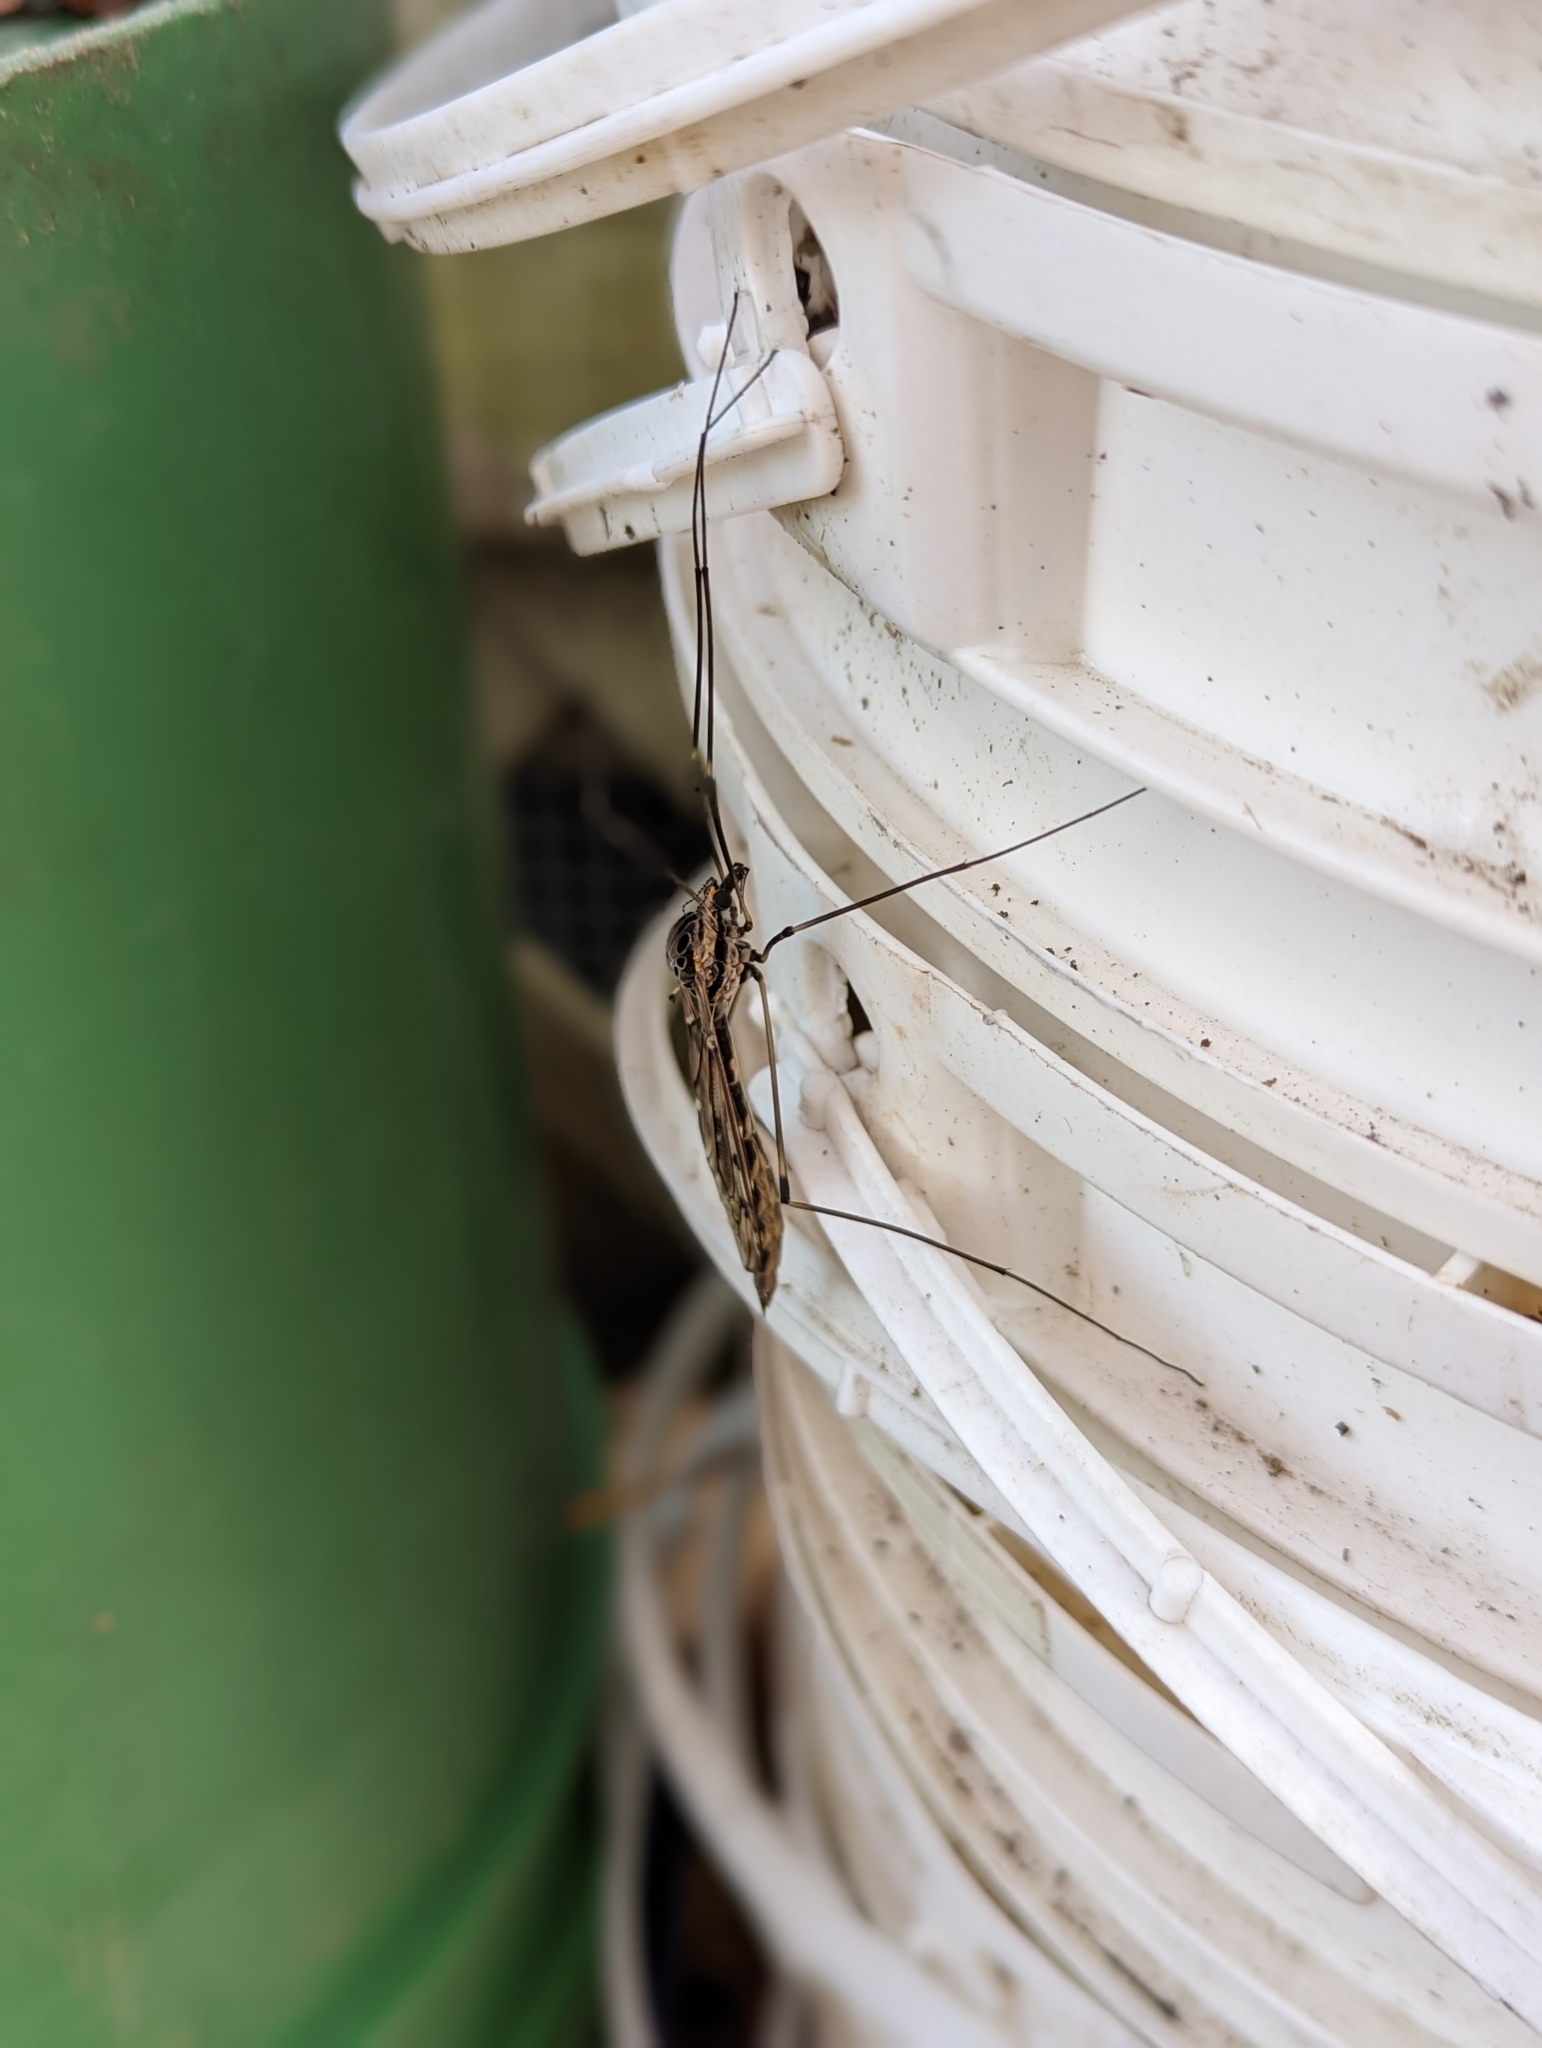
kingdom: Animalia
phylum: Arthropoda
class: Insecta
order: Diptera
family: Tipulidae
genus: Tipula
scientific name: Tipula abdominalis
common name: Giant crane fly
